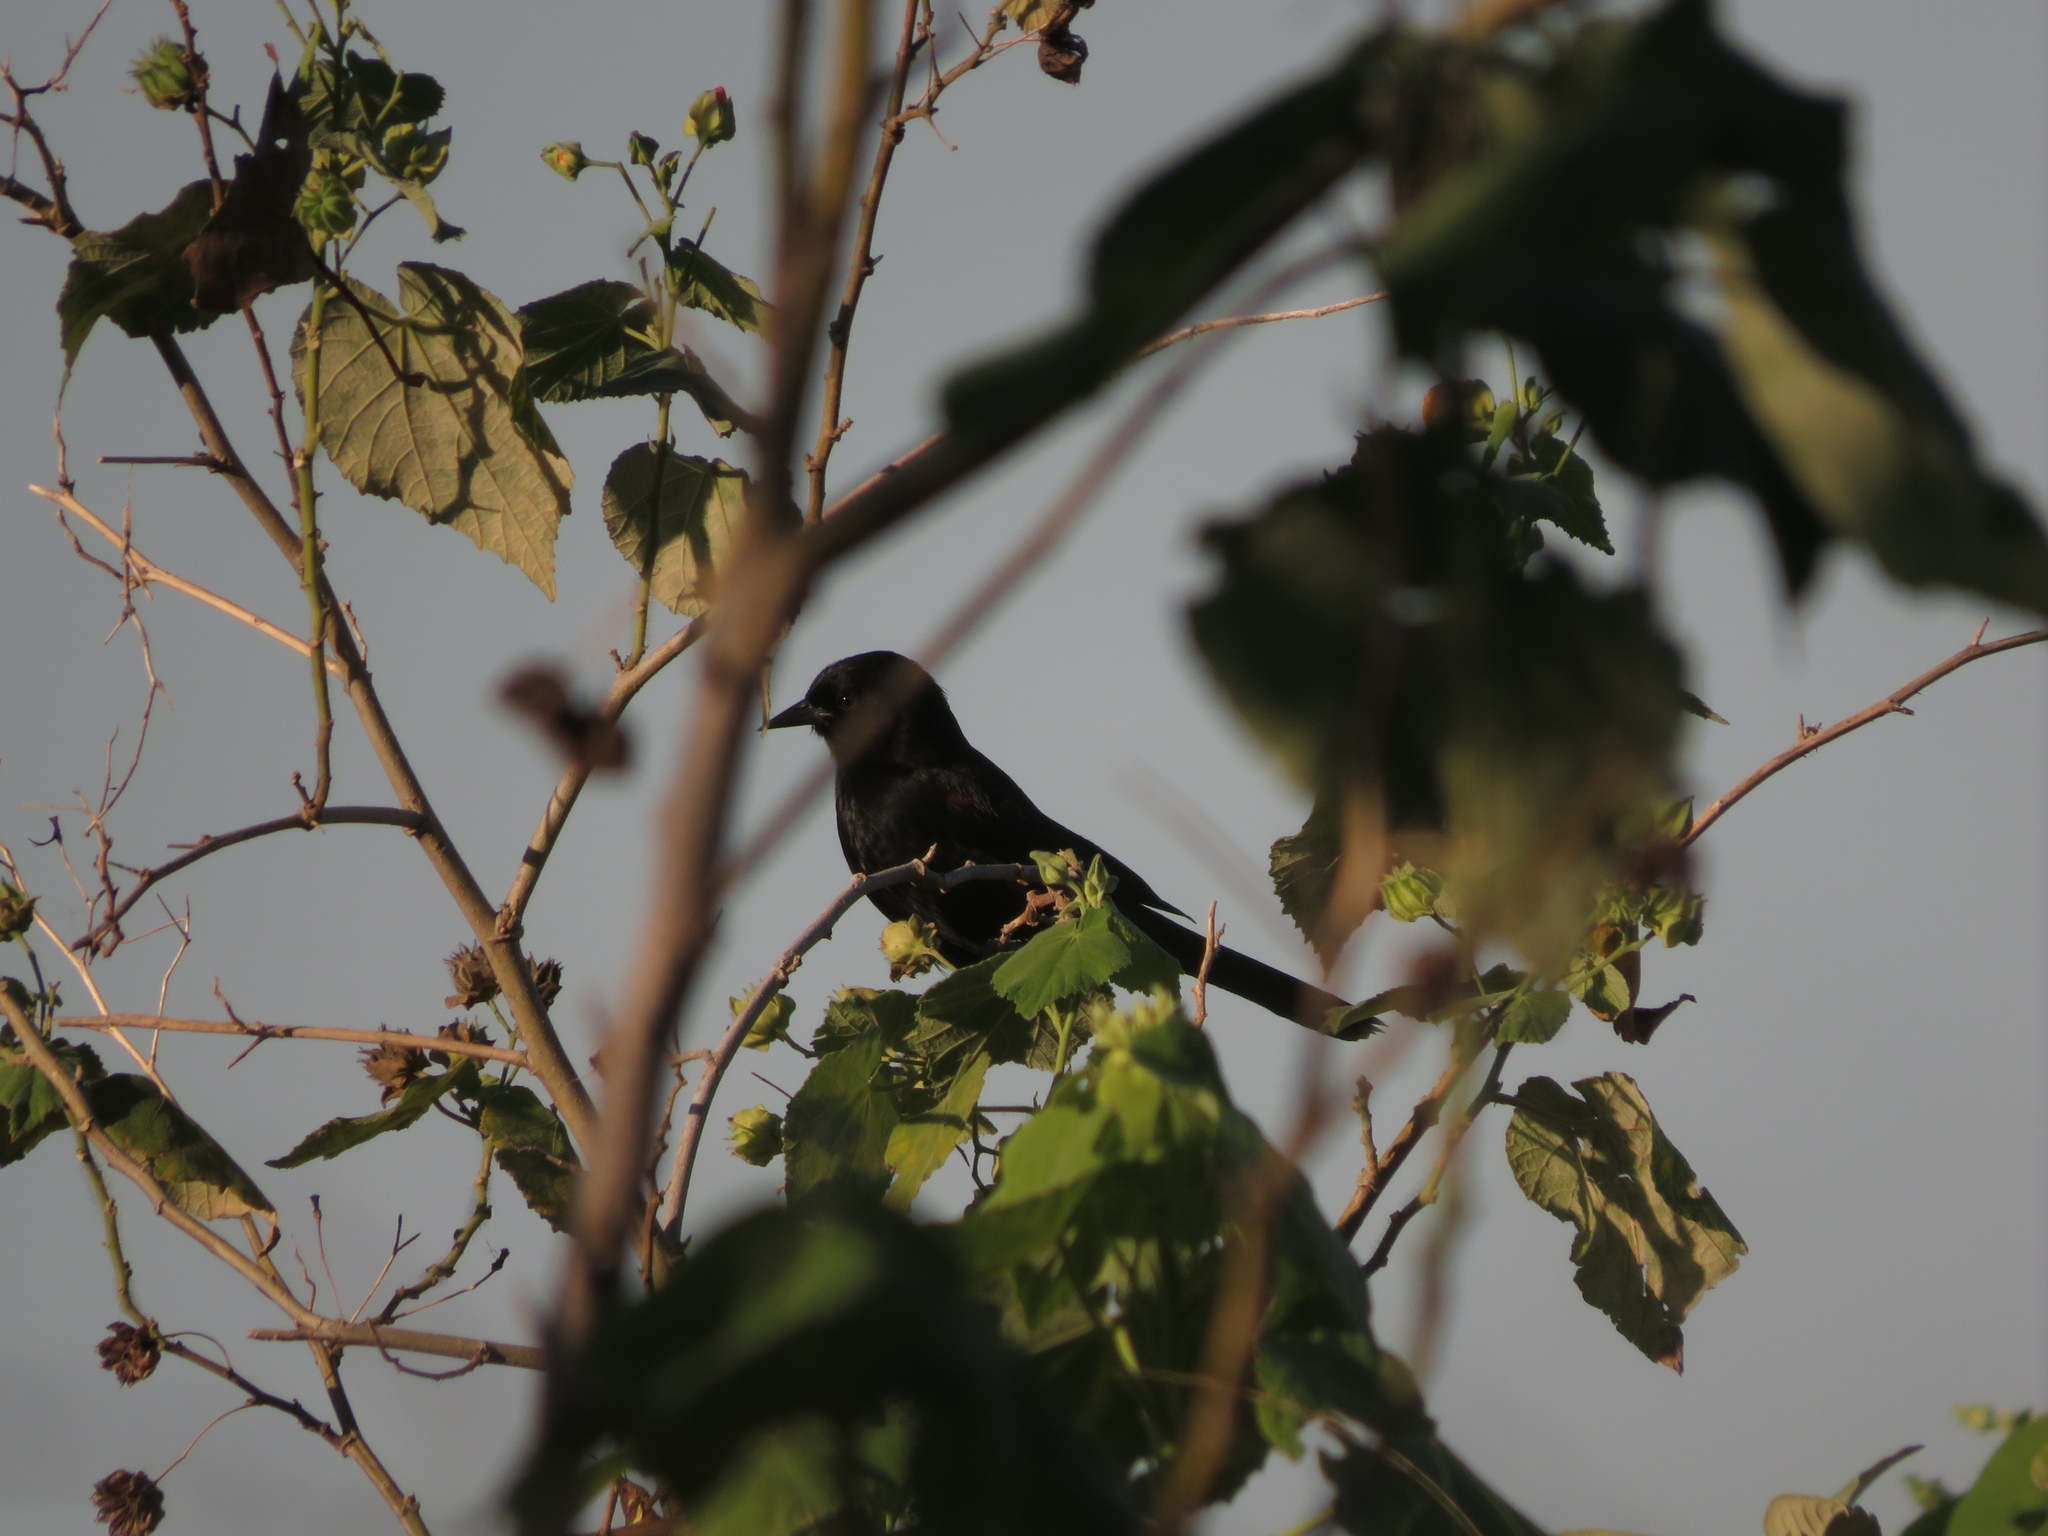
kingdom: Animalia
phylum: Chordata
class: Aves
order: Passeriformes
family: Icteridae
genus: Icterus
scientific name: Icterus cayanensis
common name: Epaulet oriole
